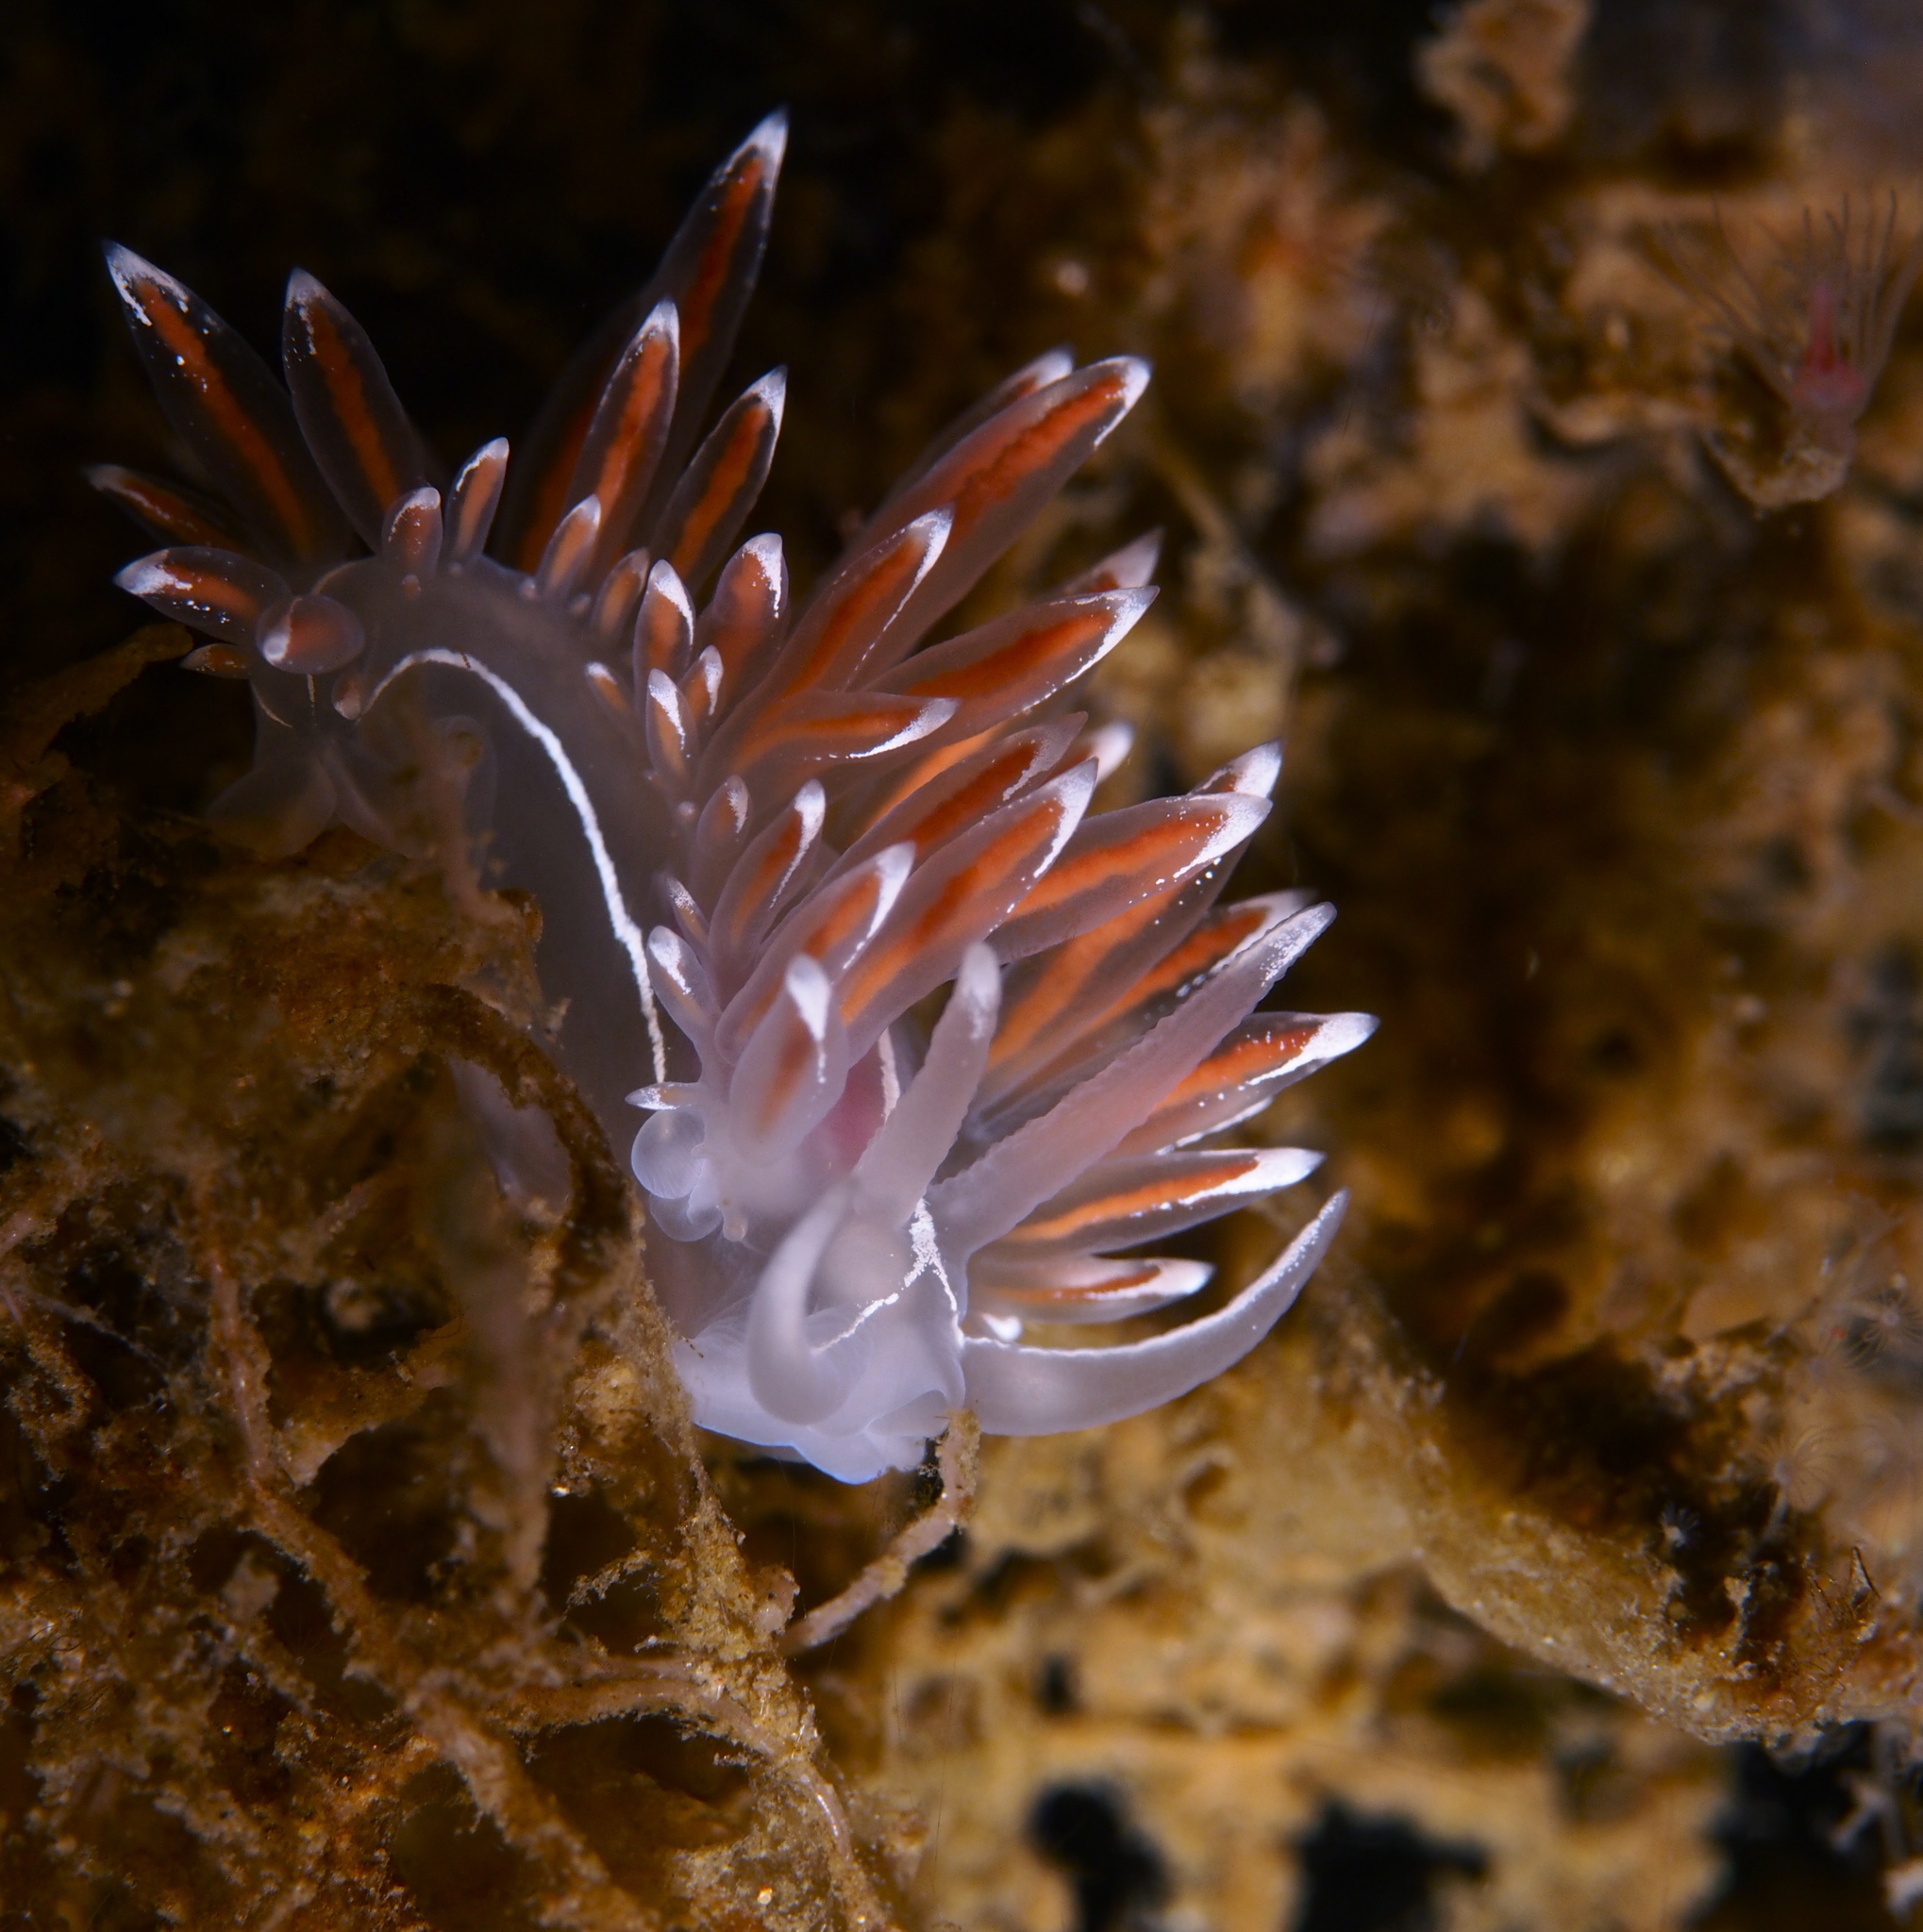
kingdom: Animalia
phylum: Mollusca
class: Gastropoda
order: Nudibranchia
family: Coryphellidae
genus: Coryphella
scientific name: Coryphella lineata
